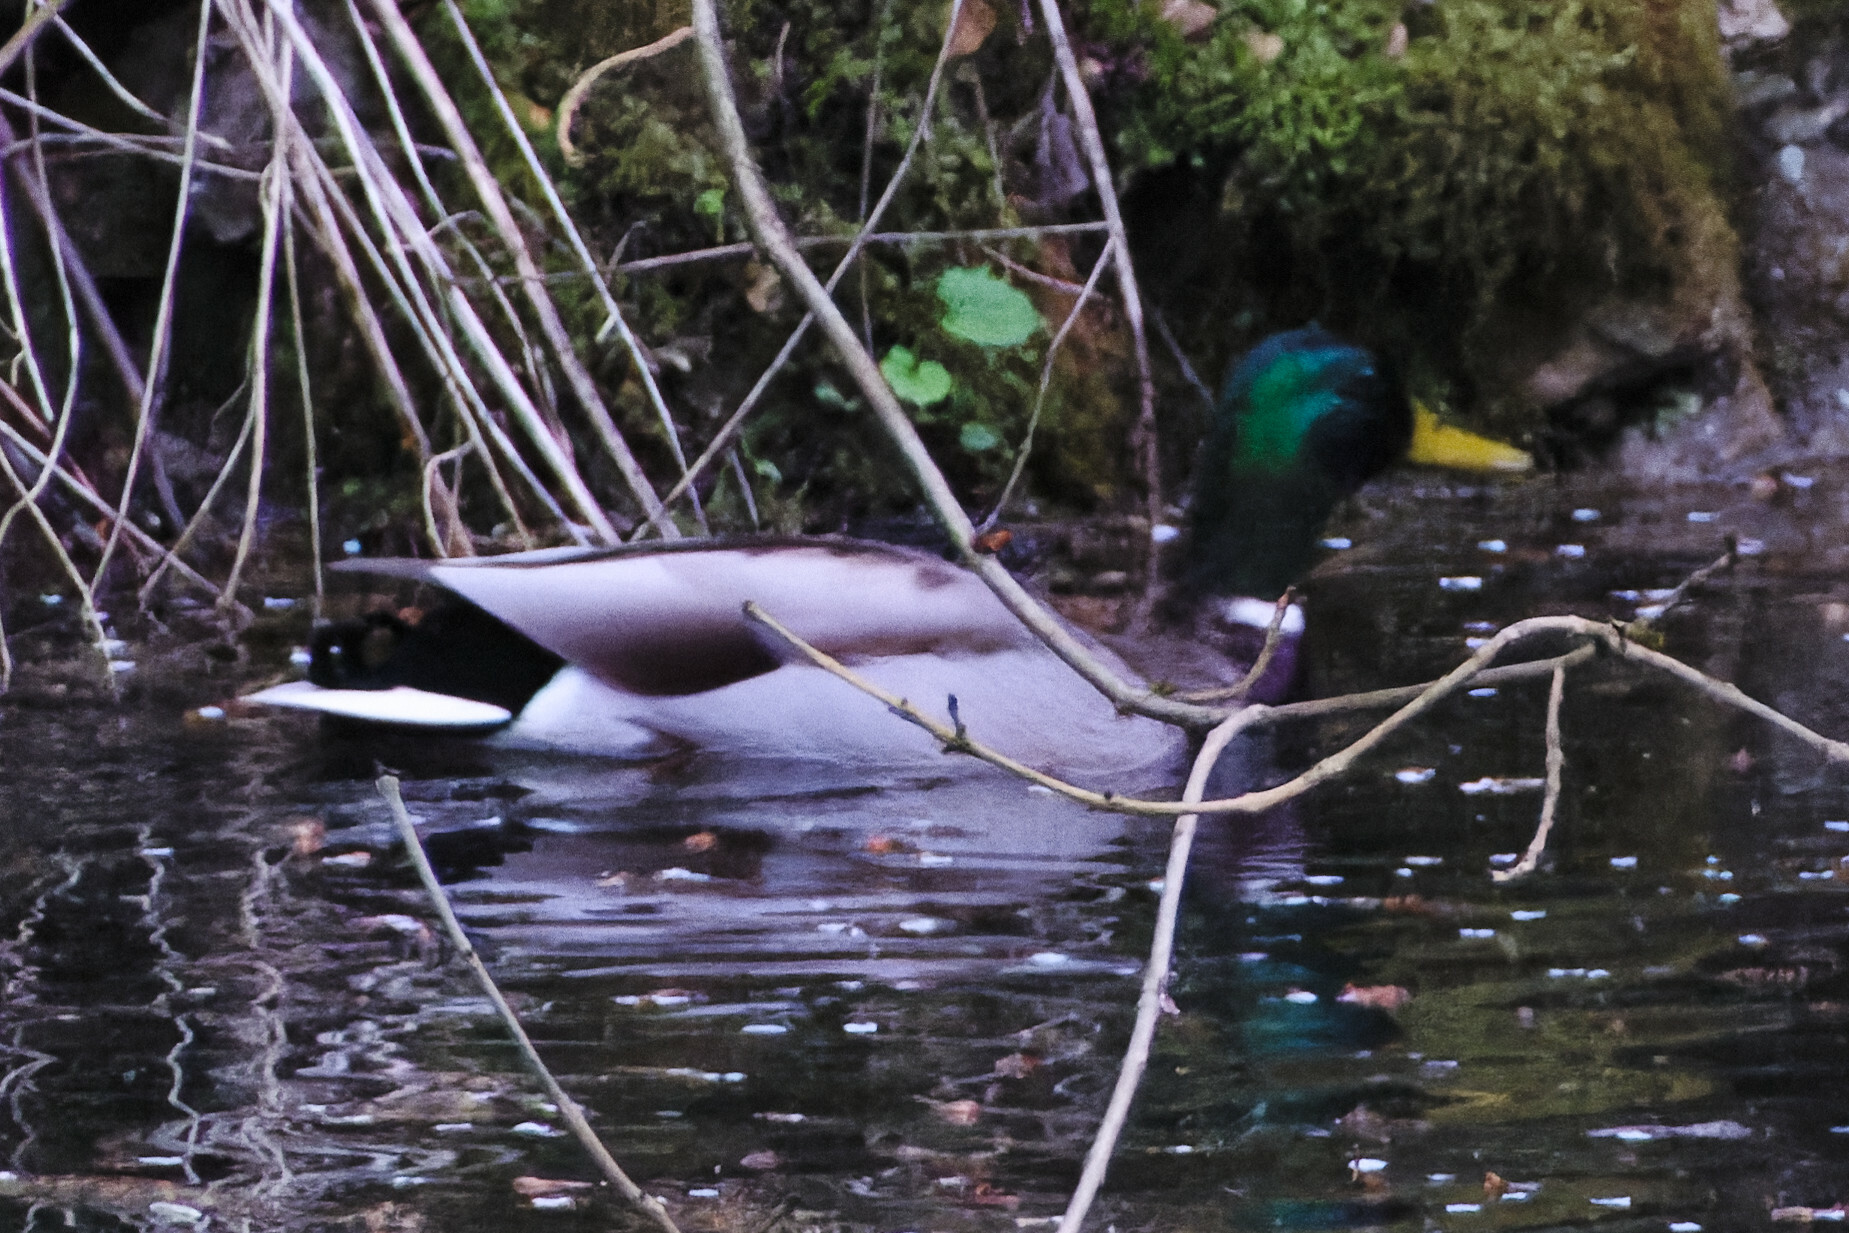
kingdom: Animalia
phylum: Chordata
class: Aves
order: Anseriformes
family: Anatidae
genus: Anas
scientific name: Anas platyrhynchos
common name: Mallard
